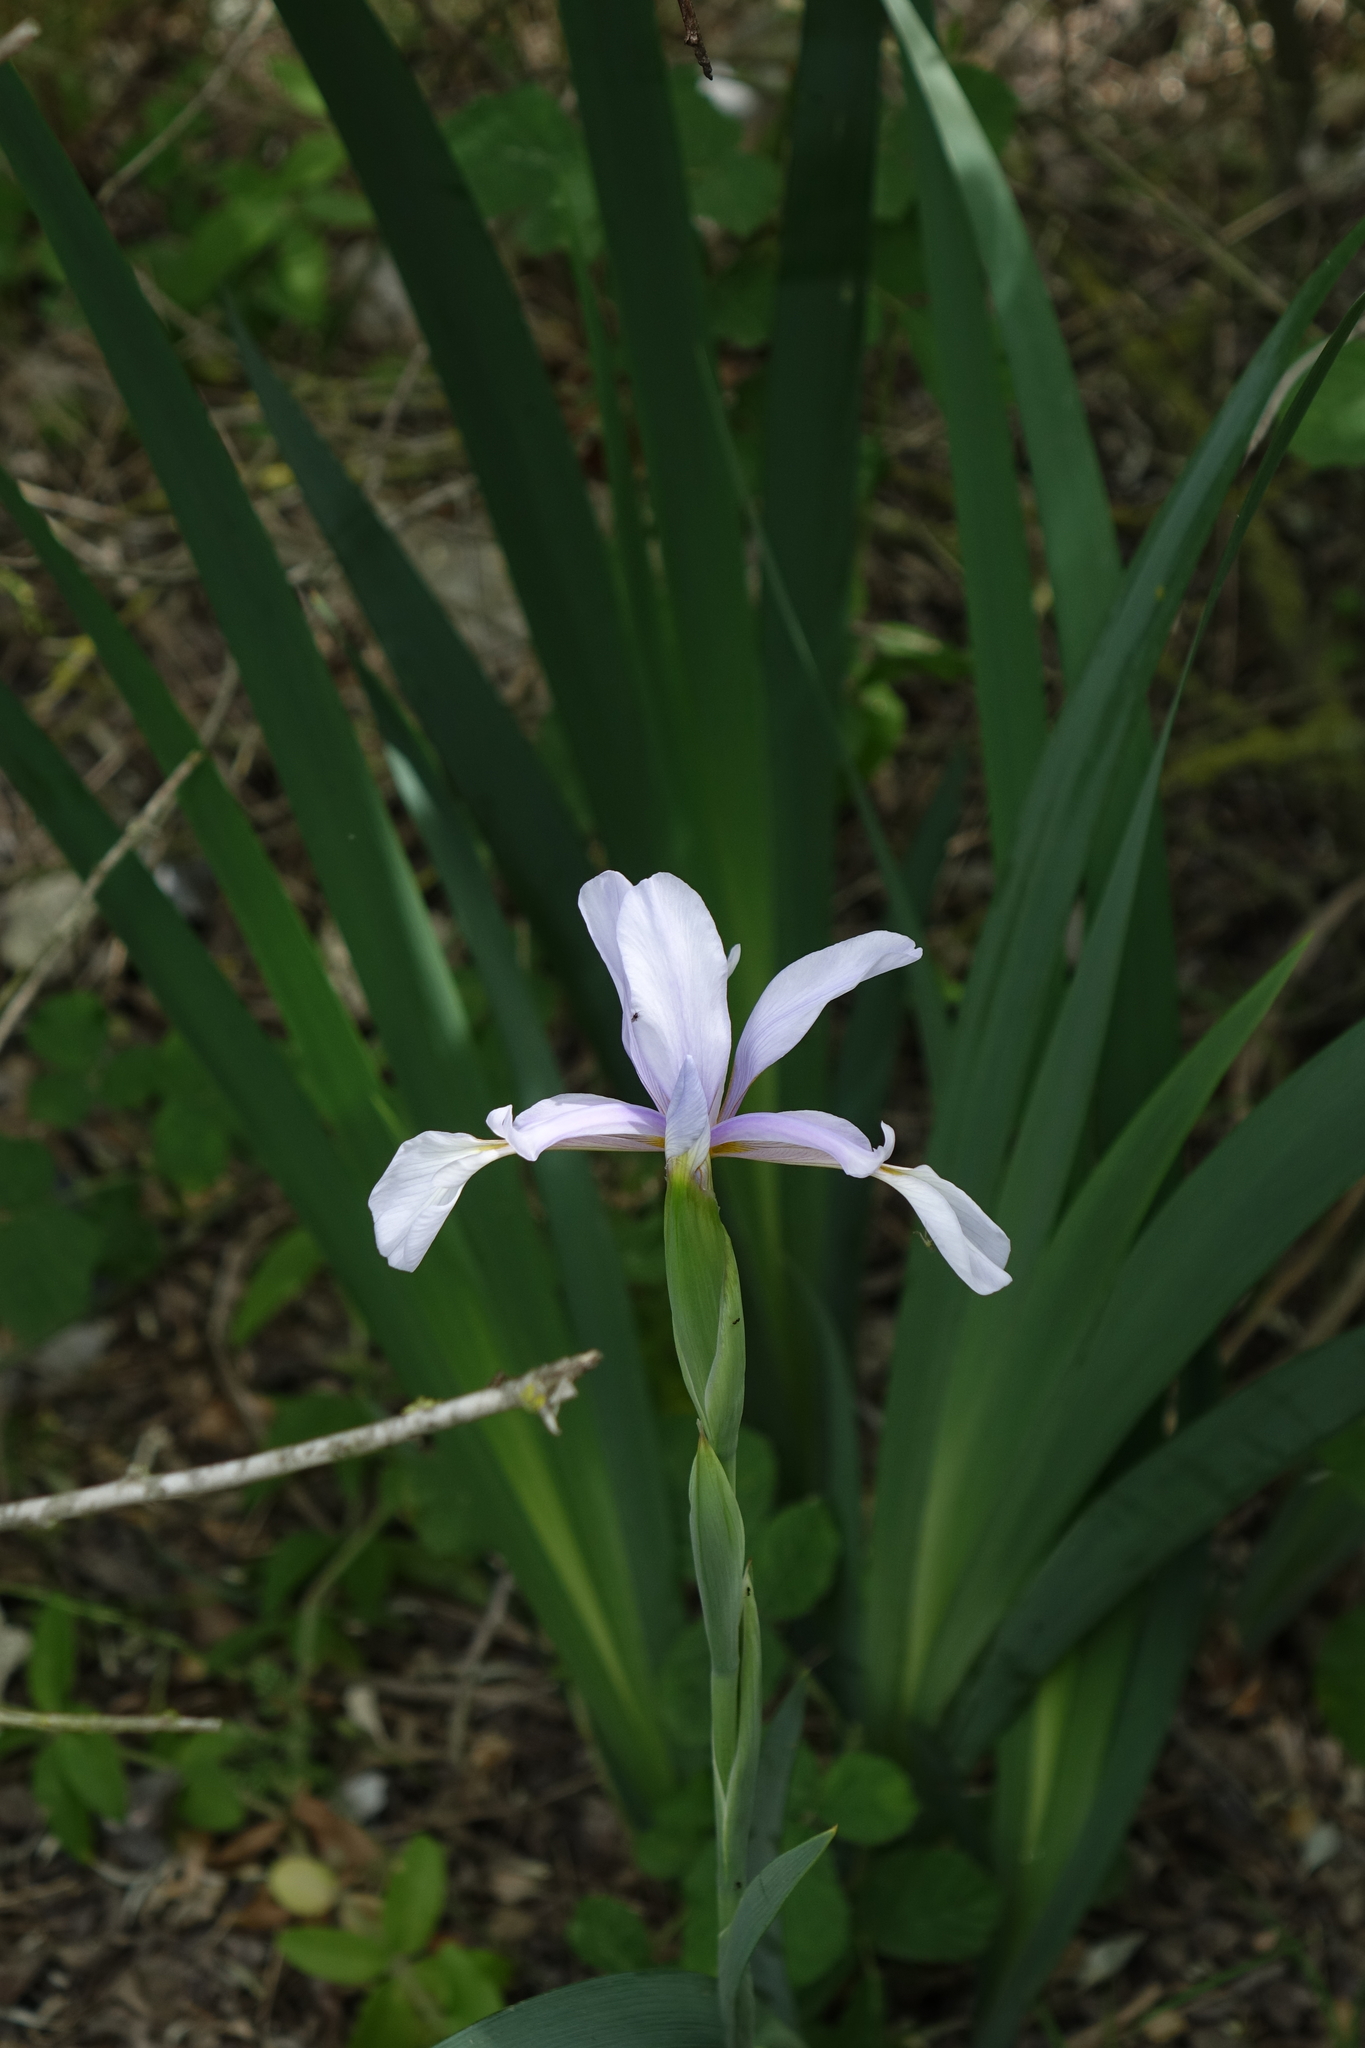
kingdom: Plantae
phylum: Tracheophyta
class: Liliopsida
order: Asparagales
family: Iridaceae
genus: Iris
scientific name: Iris pseudonotha
